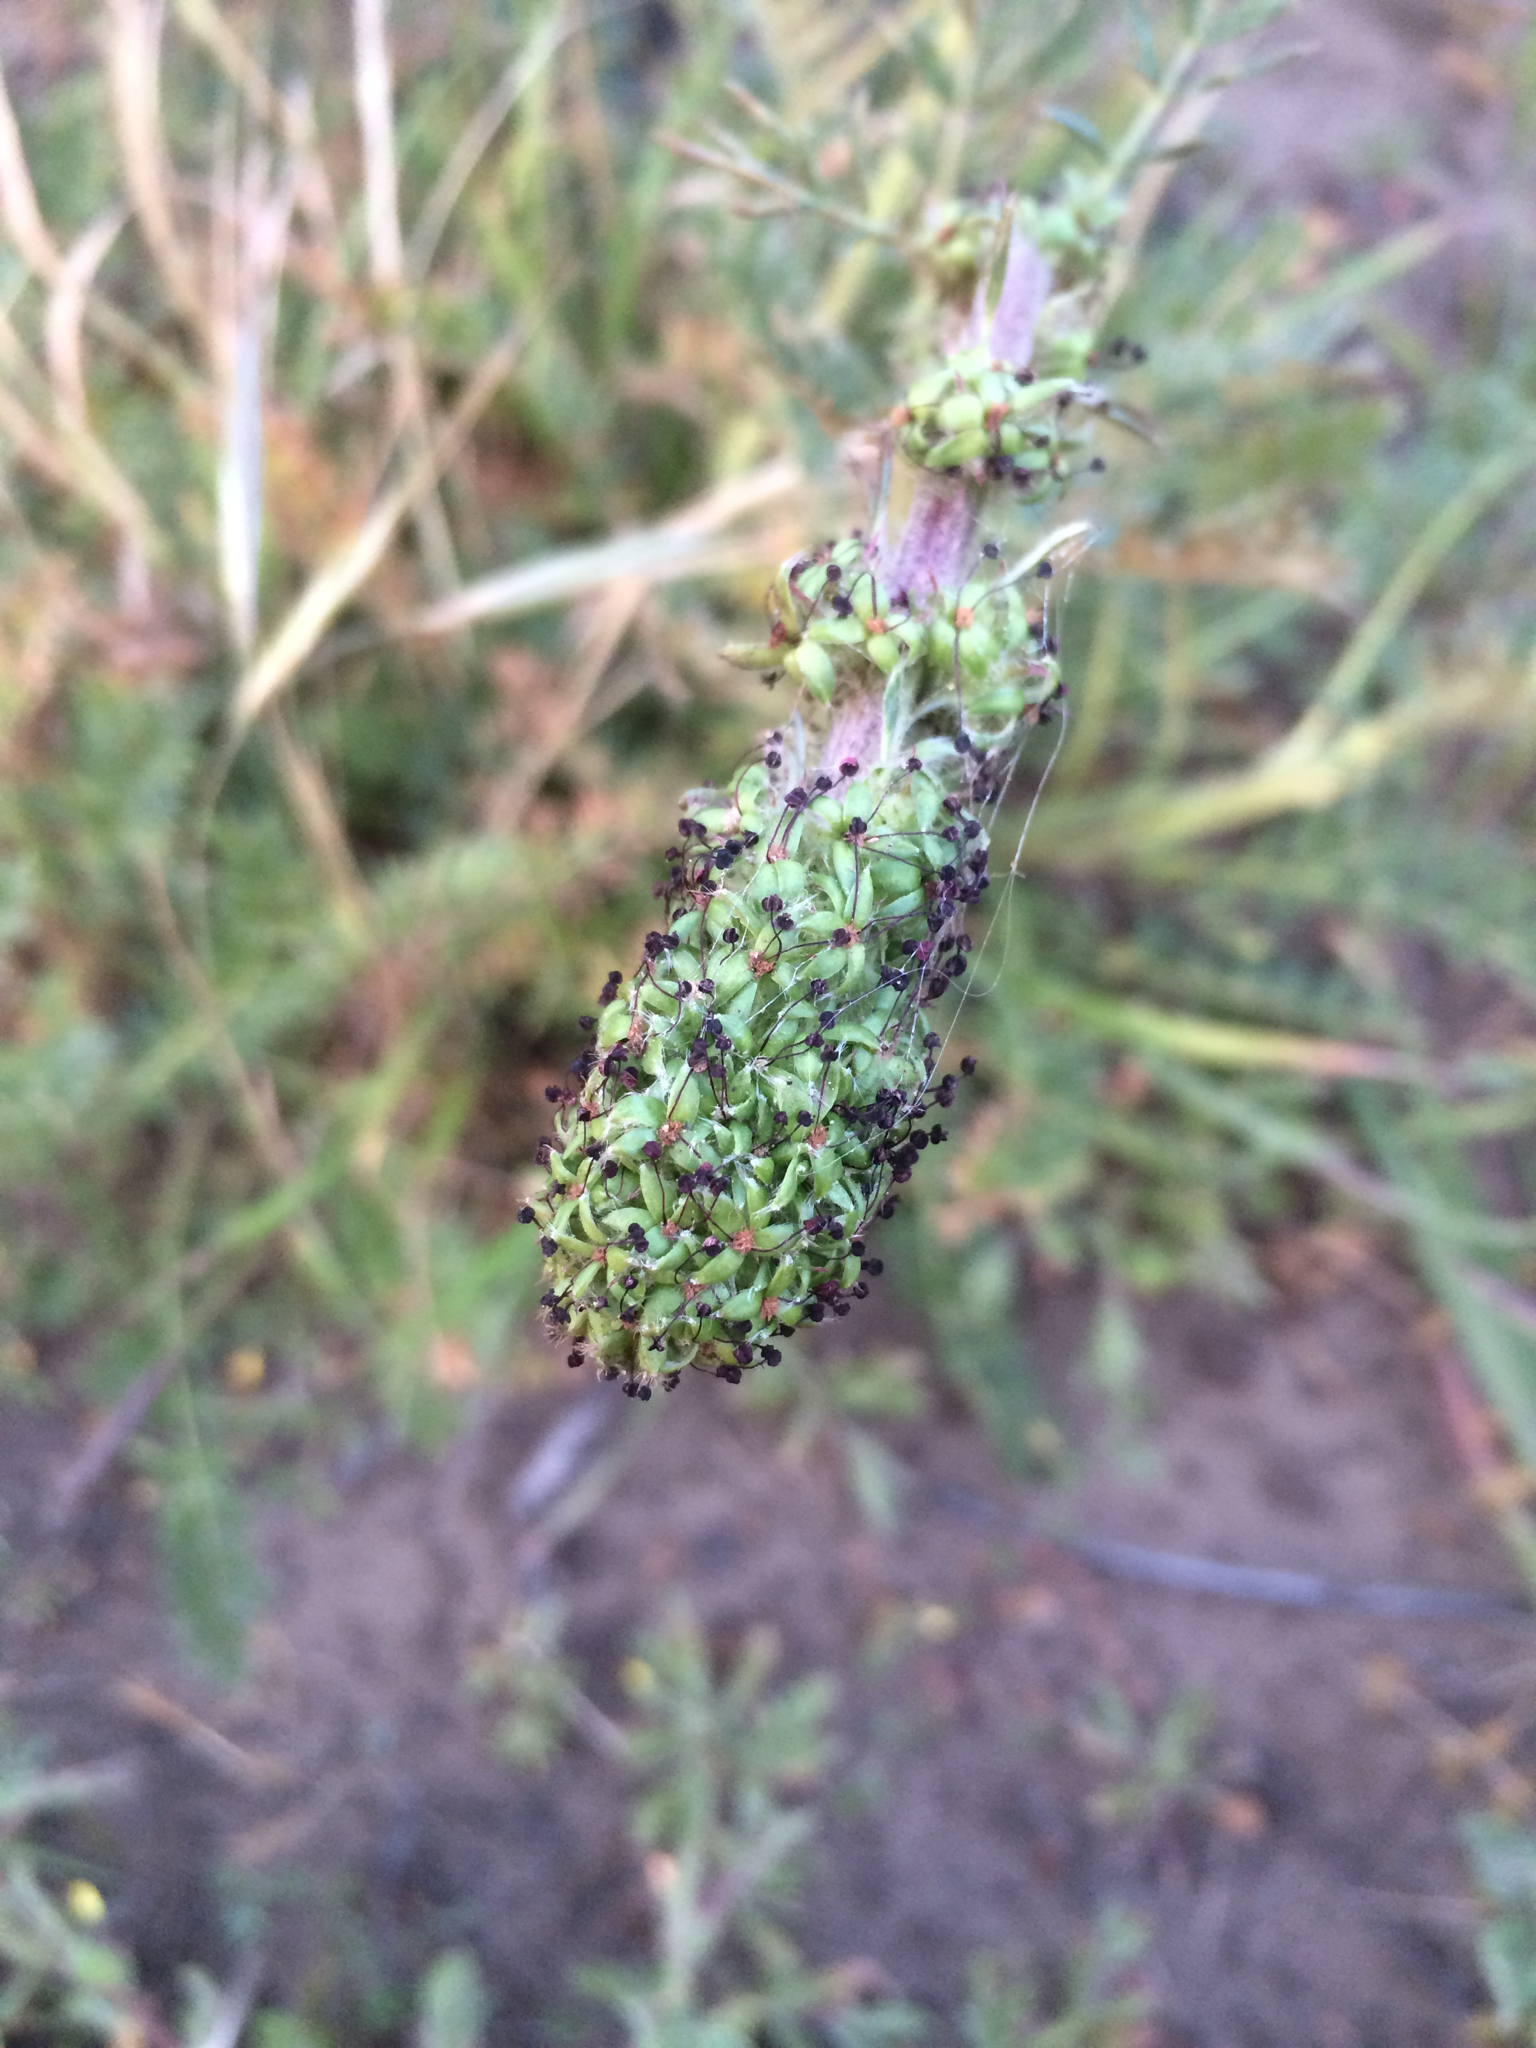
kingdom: Plantae
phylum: Tracheophyta
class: Magnoliopsida
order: Rosales
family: Rosaceae
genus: Acaena
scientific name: Acaena pinnatifida
